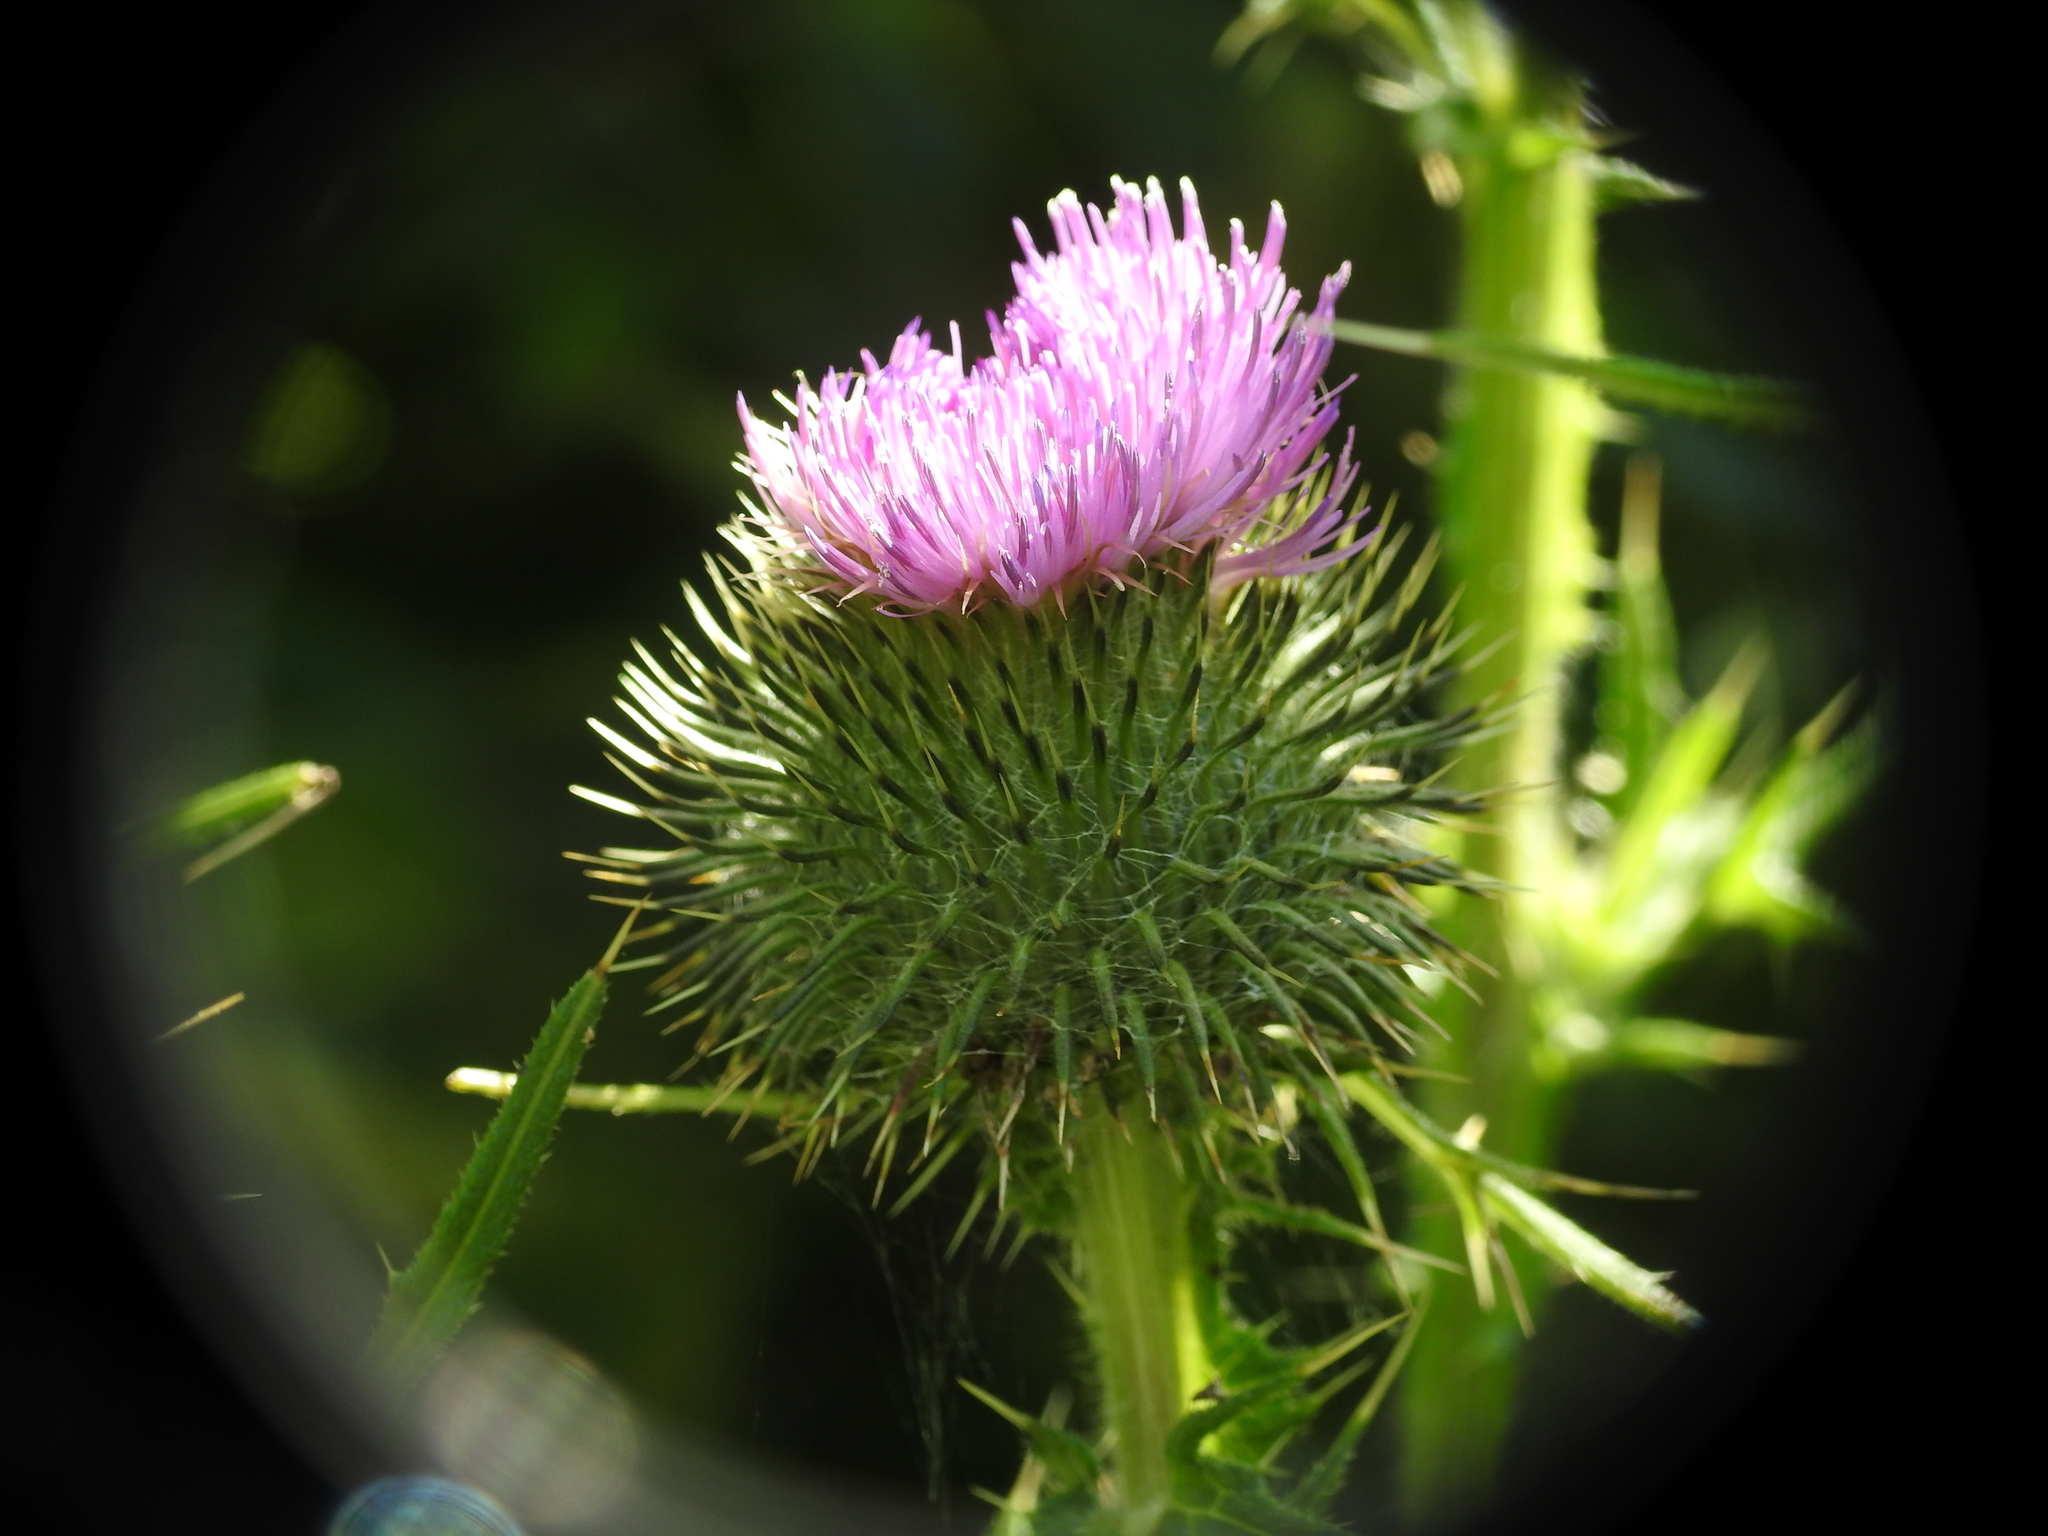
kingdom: Plantae
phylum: Tracheophyta
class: Magnoliopsida
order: Asterales
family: Asteraceae
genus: Cirsium
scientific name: Cirsium vulgare
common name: Bull thistle
